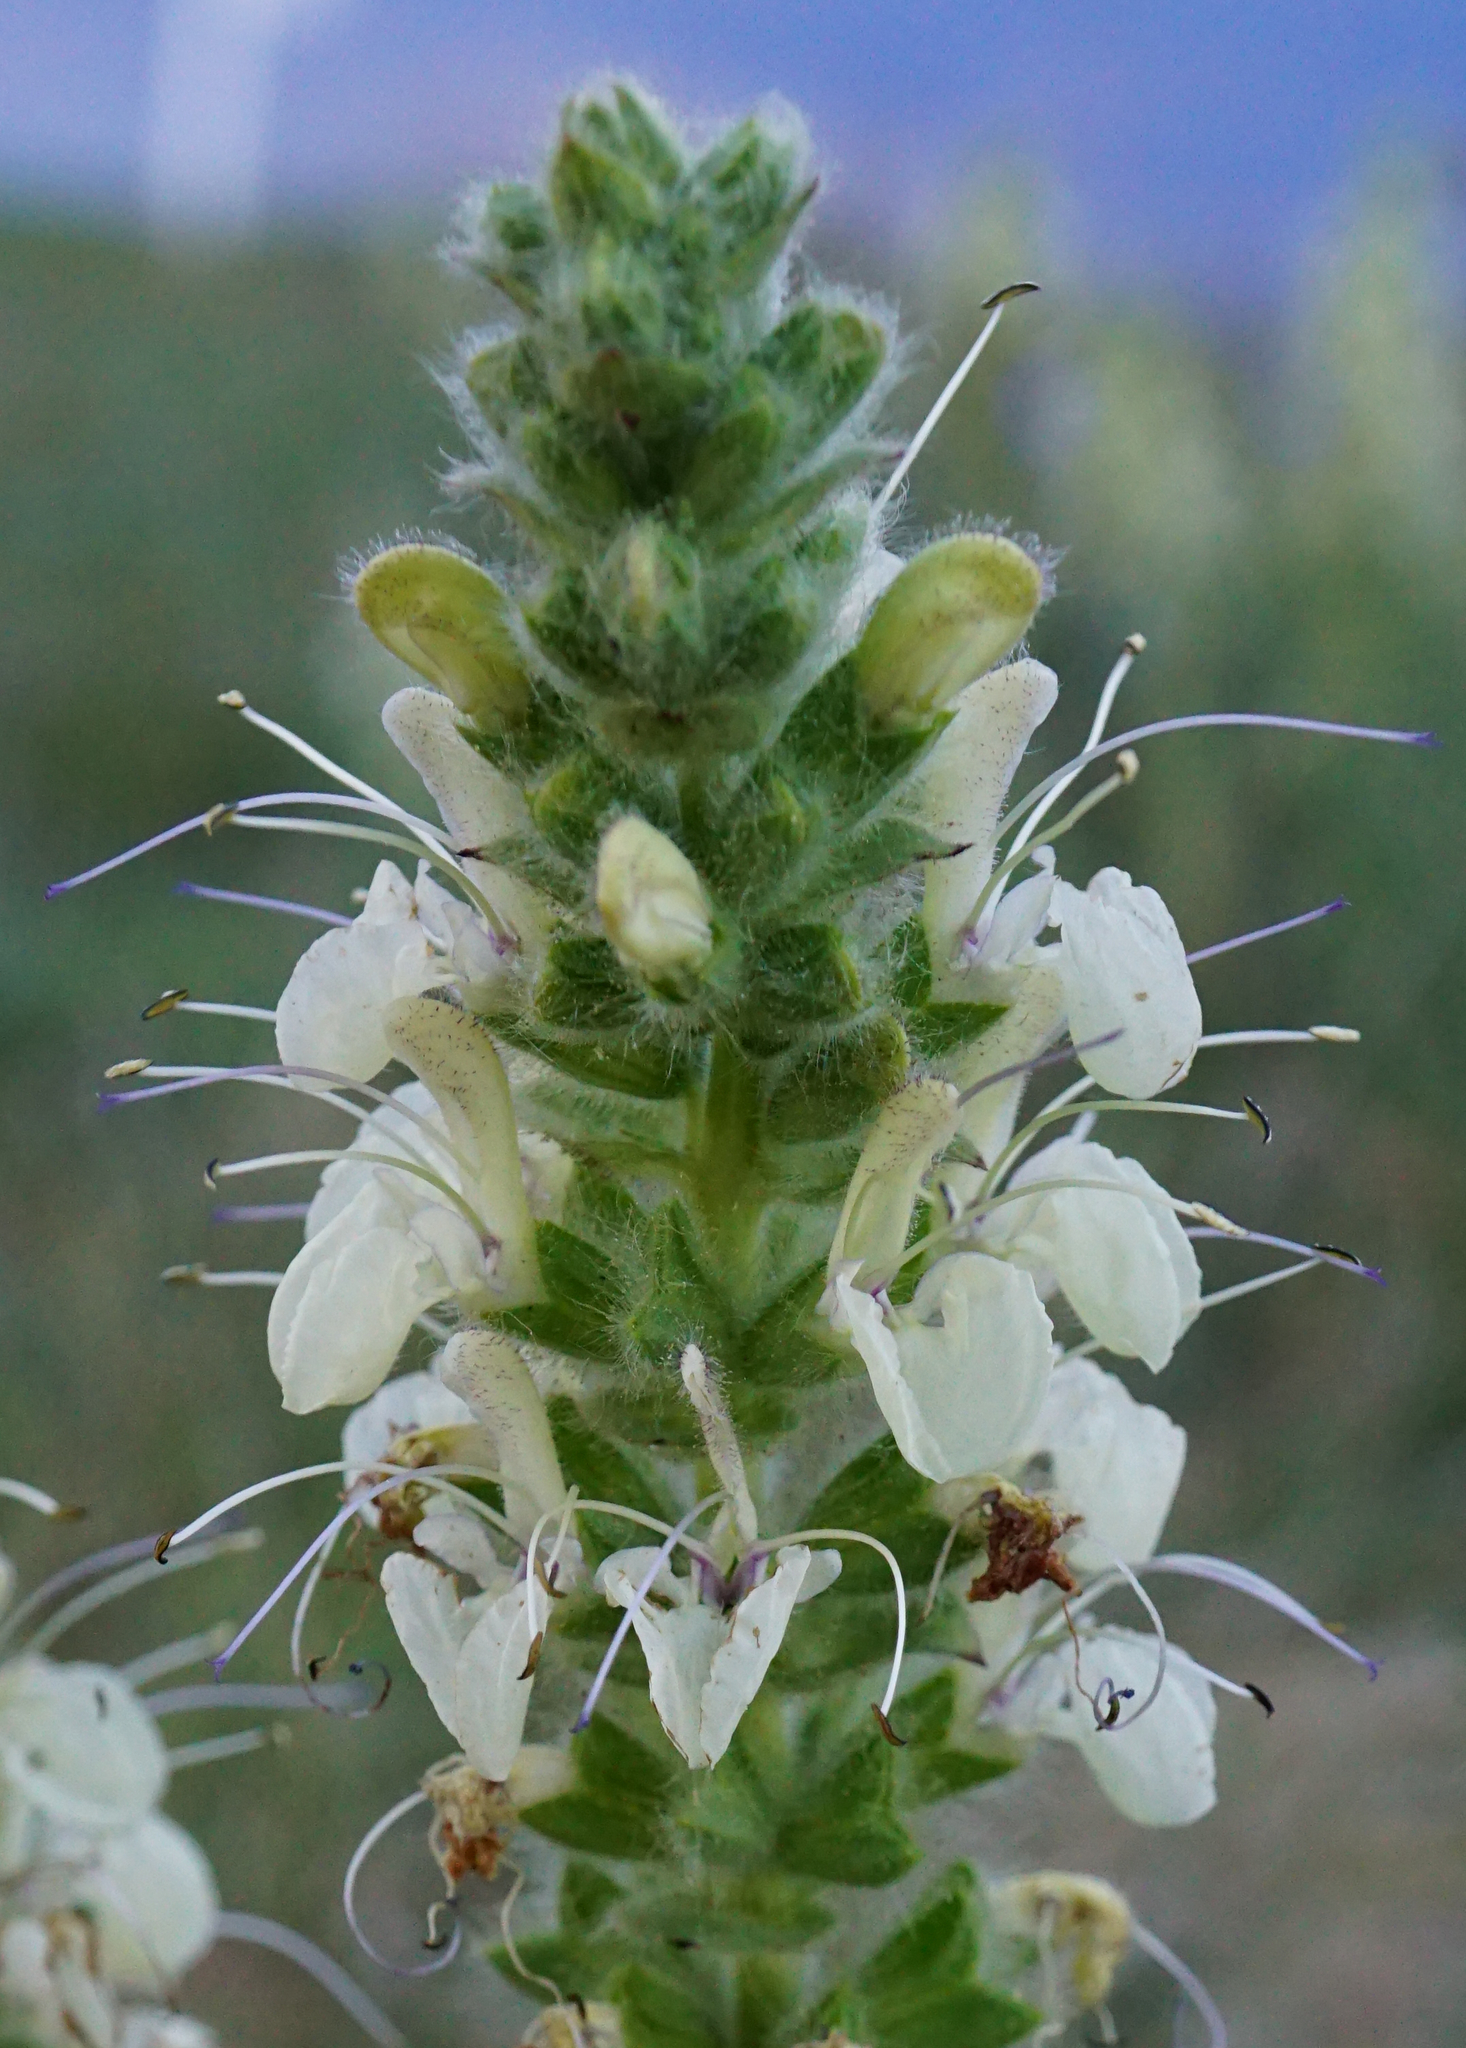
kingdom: Plantae
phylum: Tracheophyta
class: Magnoliopsida
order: Lamiales
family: Lamiaceae
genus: Salvia
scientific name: Salvia austriaca
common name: Austrian sage
